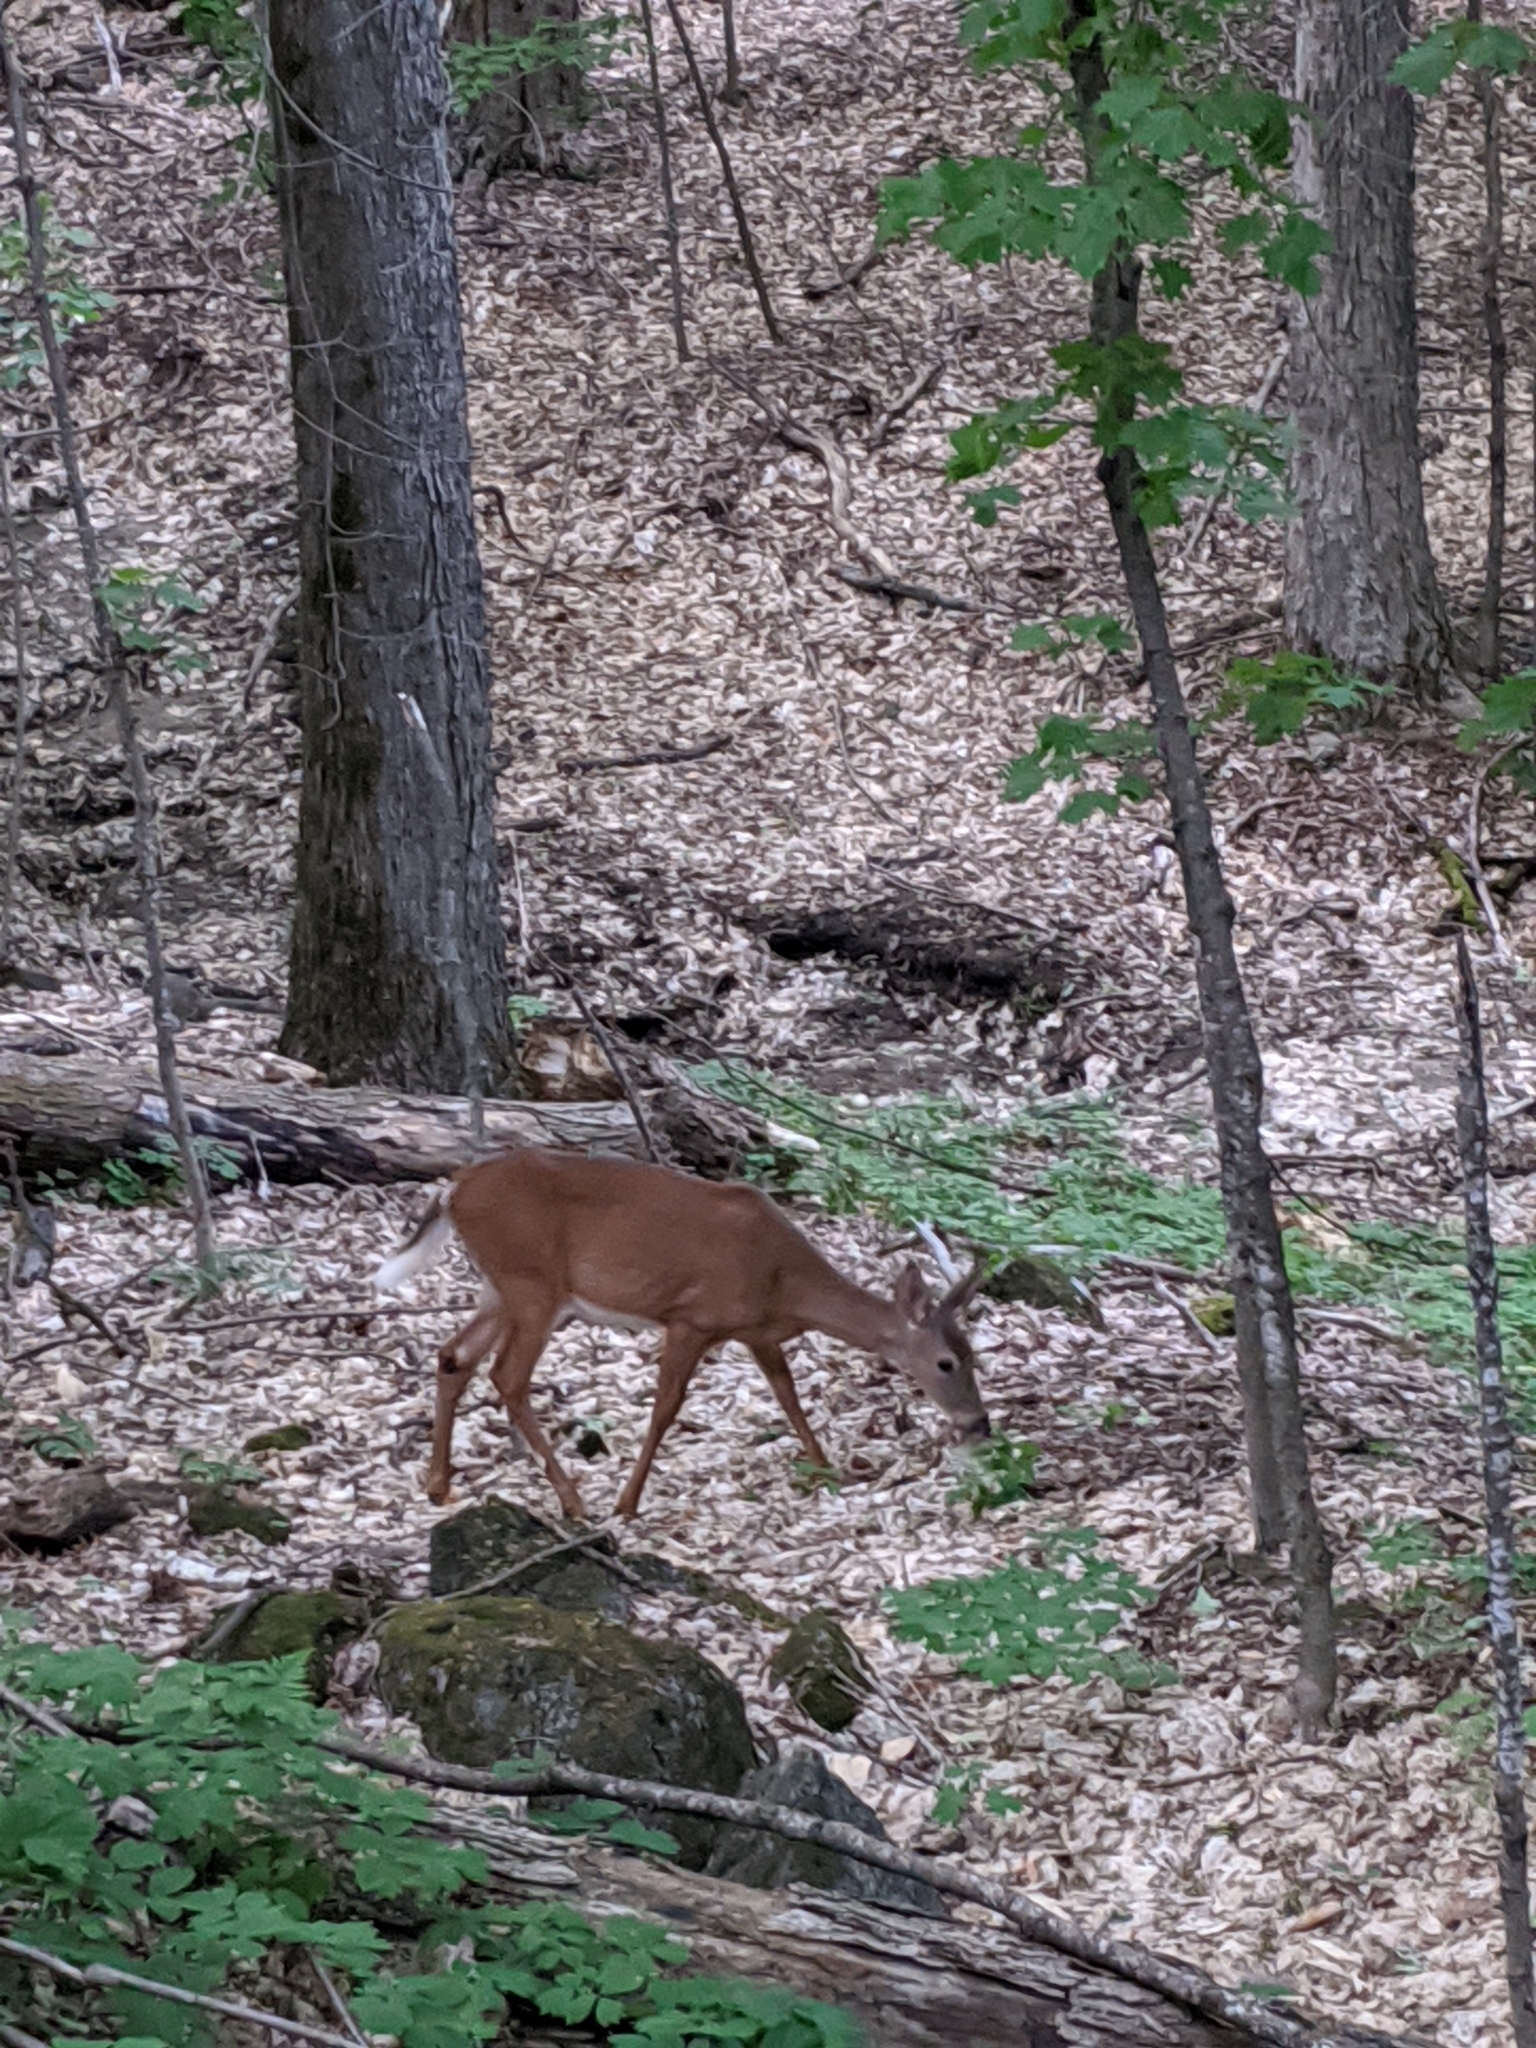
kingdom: Animalia
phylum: Chordata
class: Mammalia
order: Artiodactyla
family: Cervidae
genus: Odocoileus
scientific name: Odocoileus virginianus
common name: White-tailed deer
